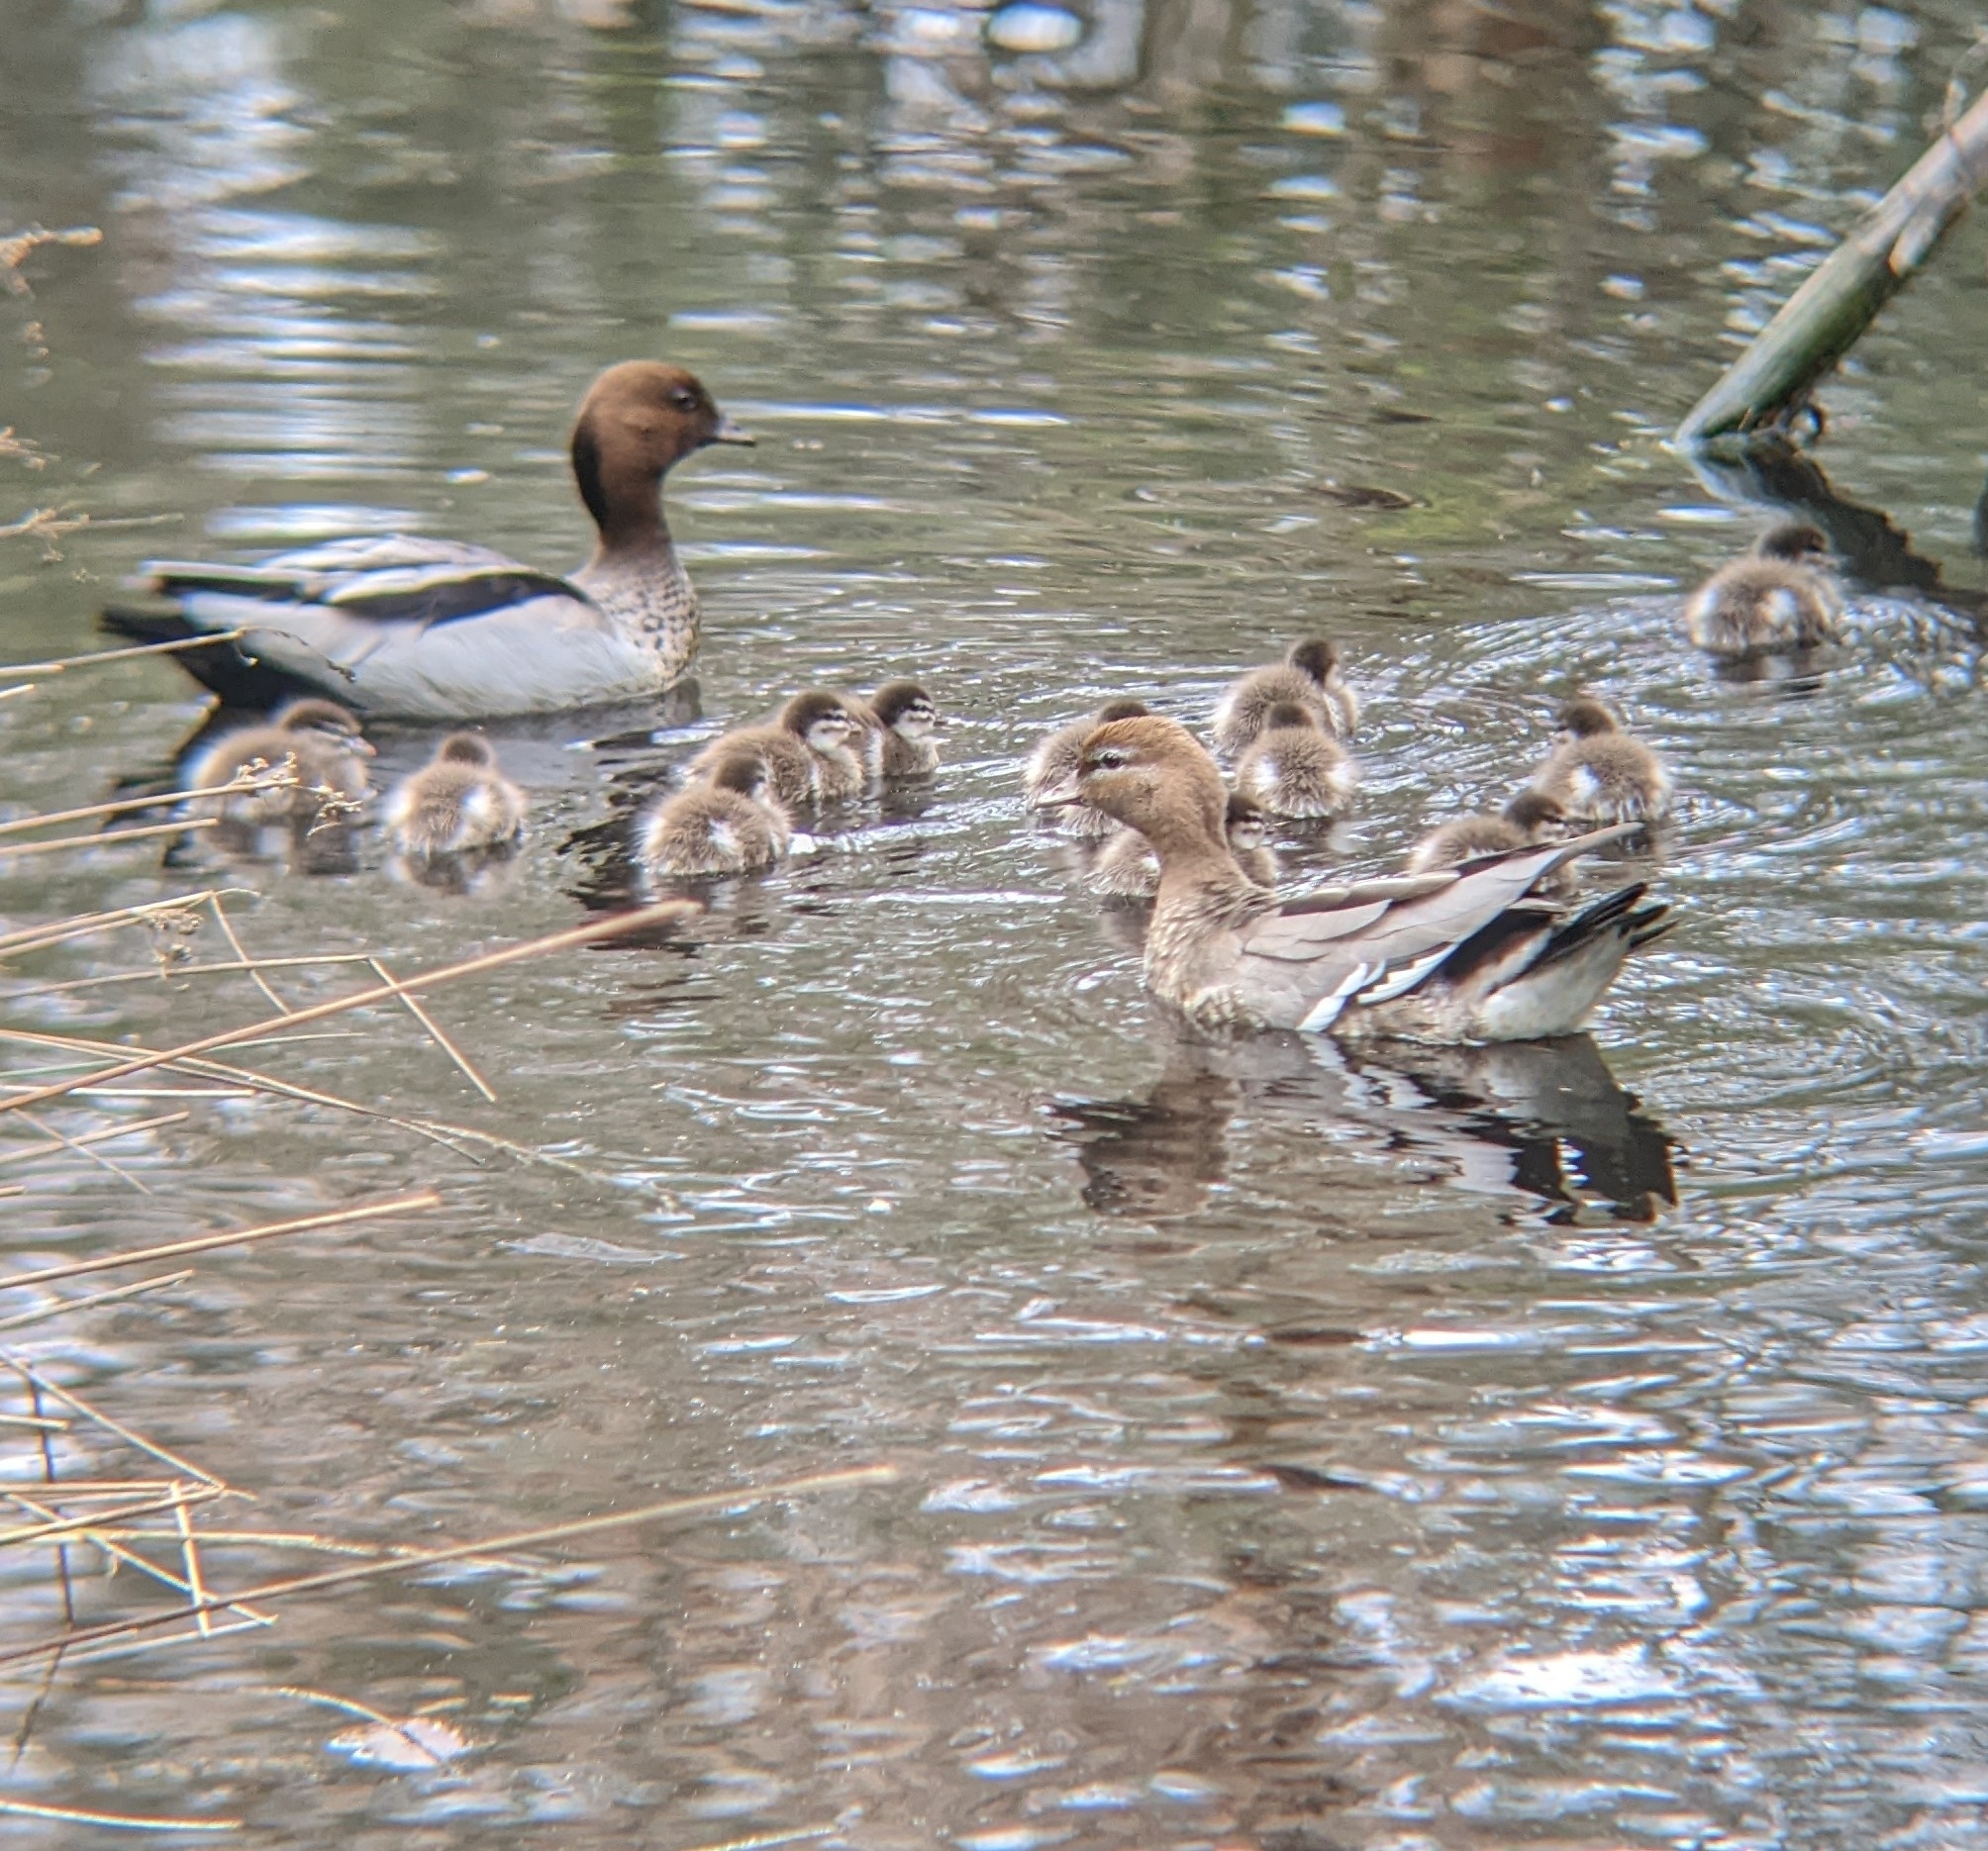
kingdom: Animalia
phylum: Chordata
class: Aves
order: Anseriformes
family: Anatidae
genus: Chenonetta
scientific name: Chenonetta jubata
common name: Maned duck
